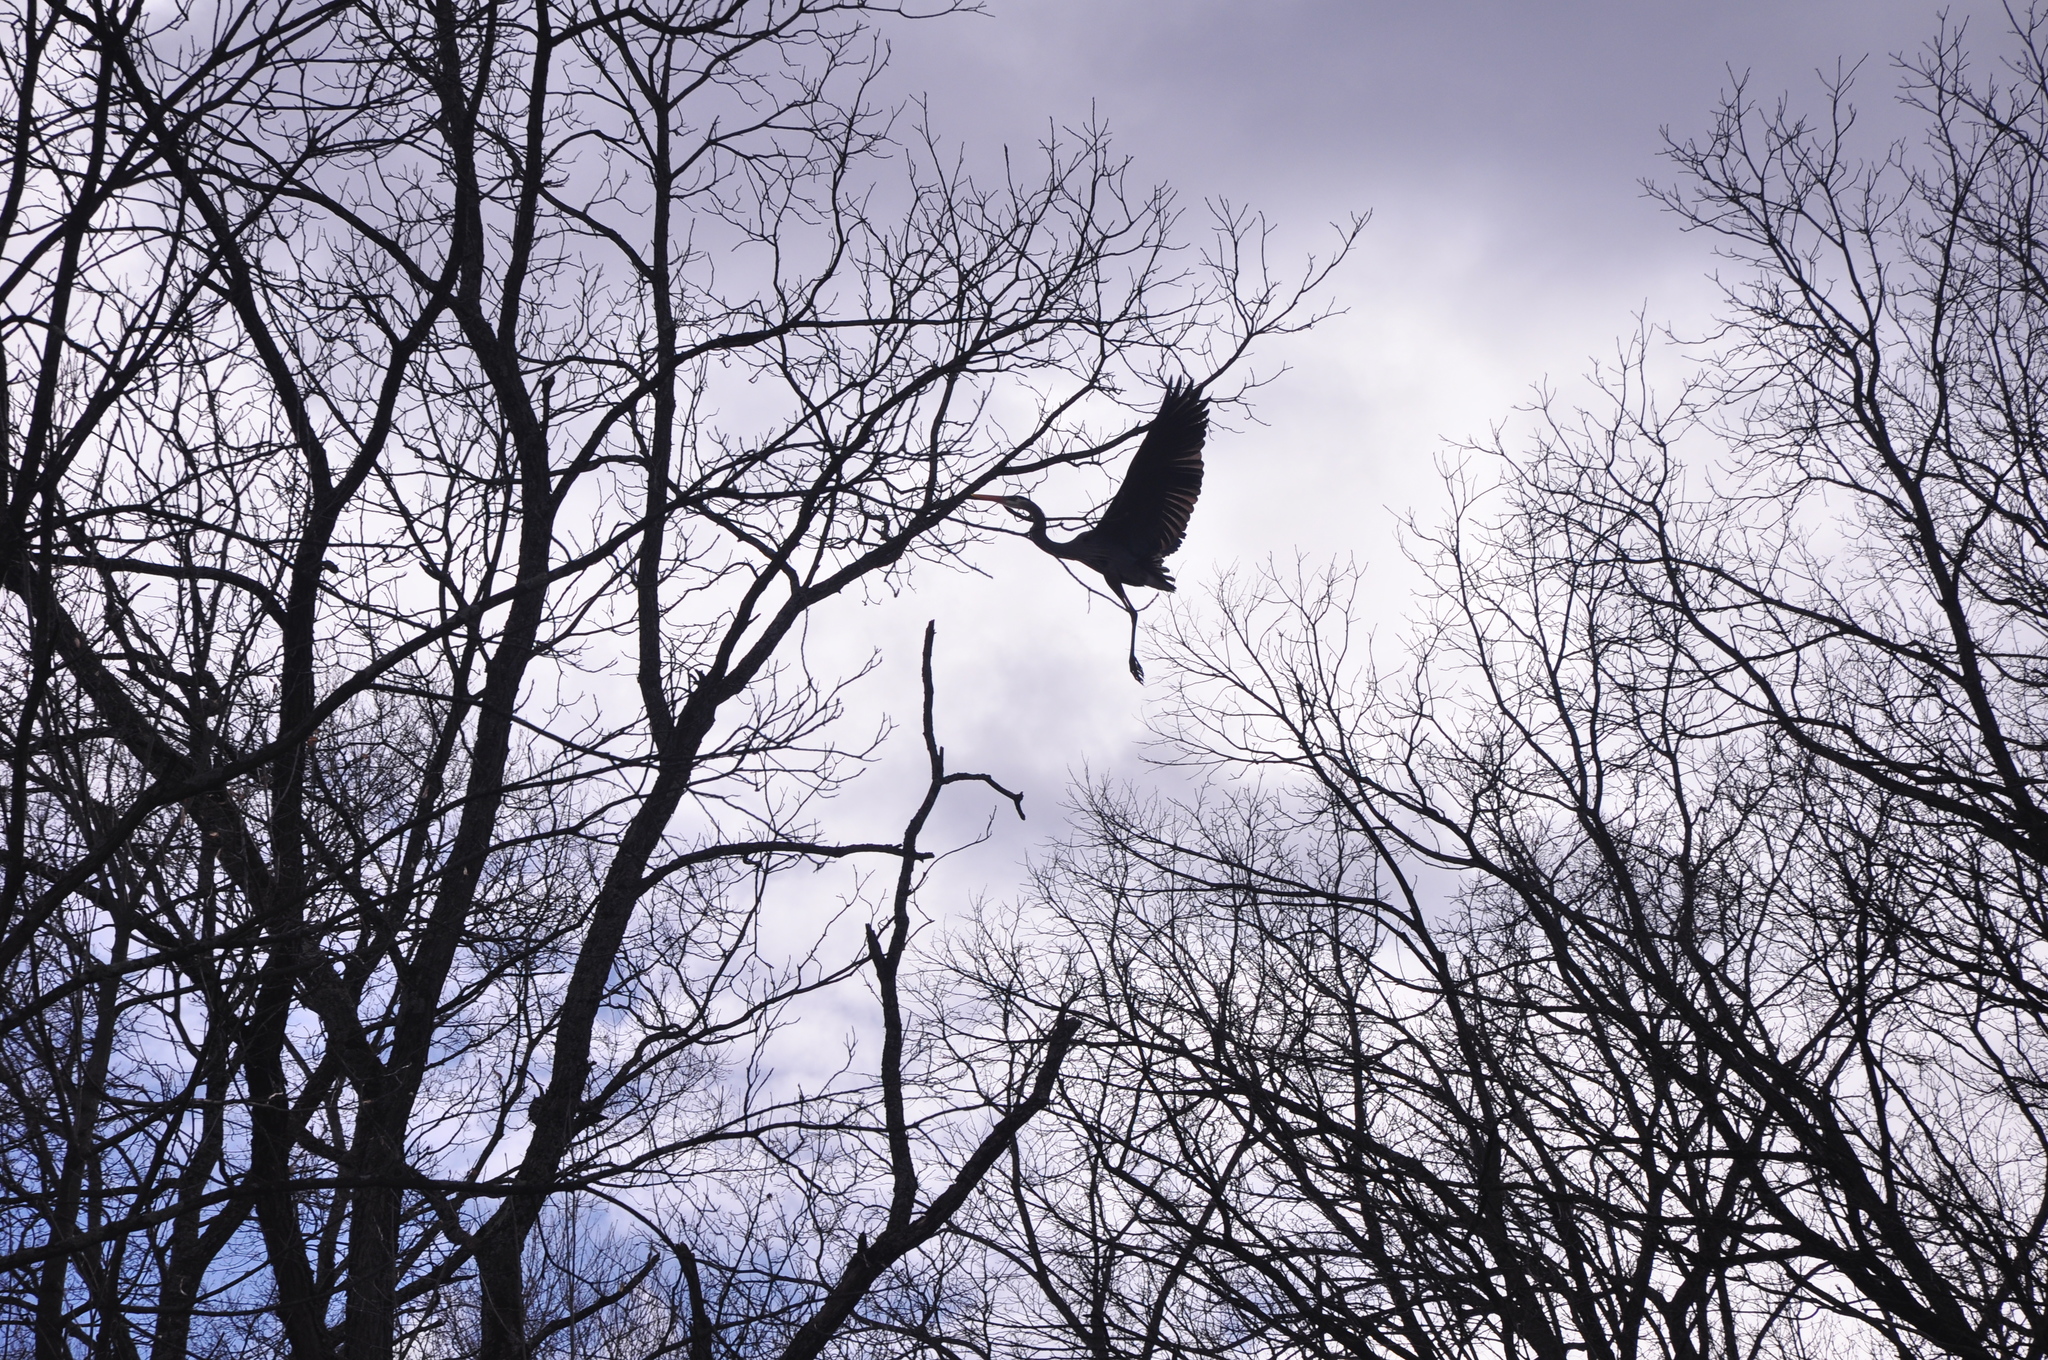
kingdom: Animalia
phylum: Chordata
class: Aves
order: Pelecaniformes
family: Ardeidae
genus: Ardea
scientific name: Ardea herodias
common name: Great blue heron
